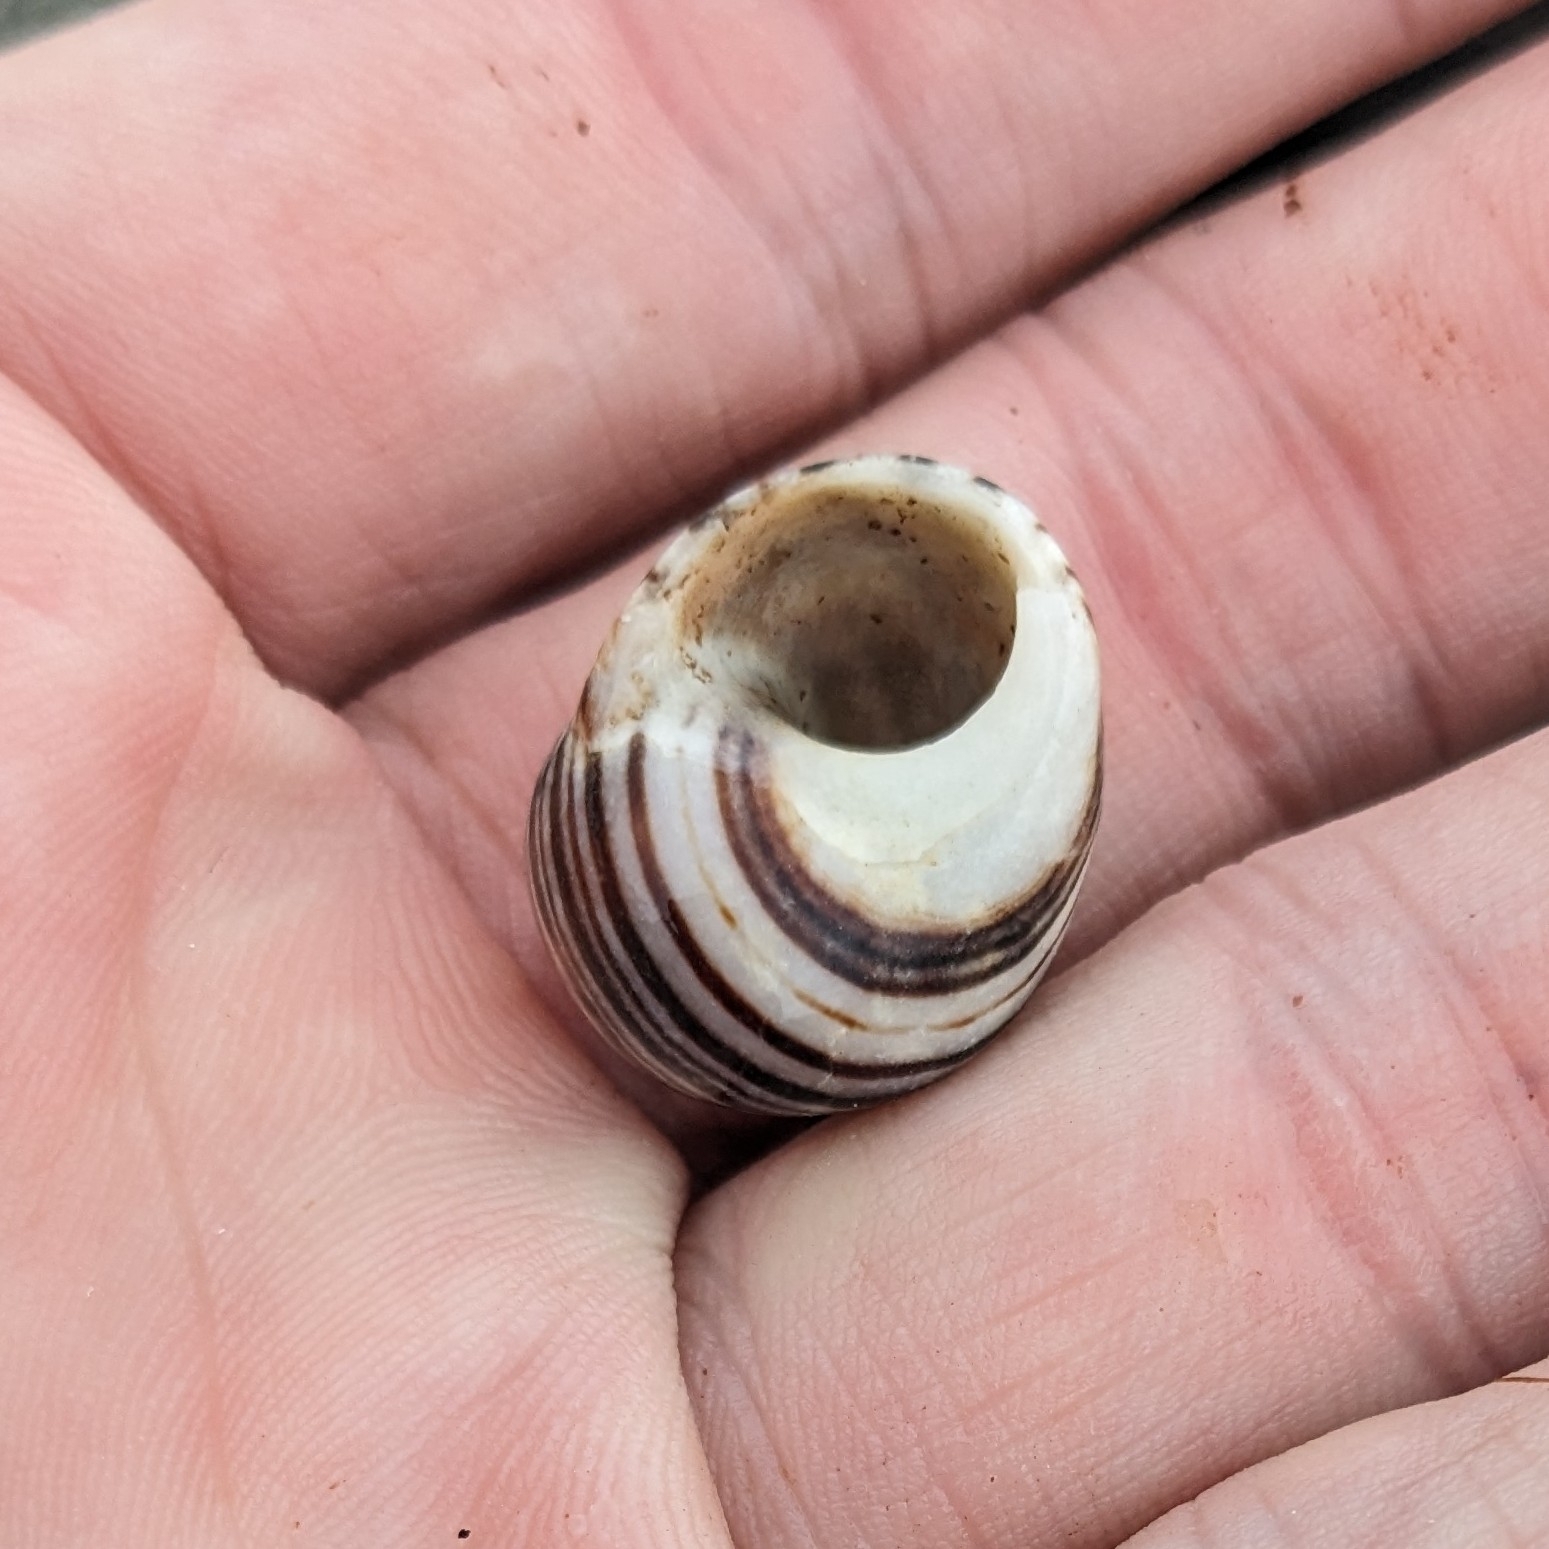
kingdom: Animalia
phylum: Mollusca
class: Gastropoda
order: Littorinimorpha
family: Littorinidae
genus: Littorina
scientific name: Littorina littorea
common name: Common periwinkle
